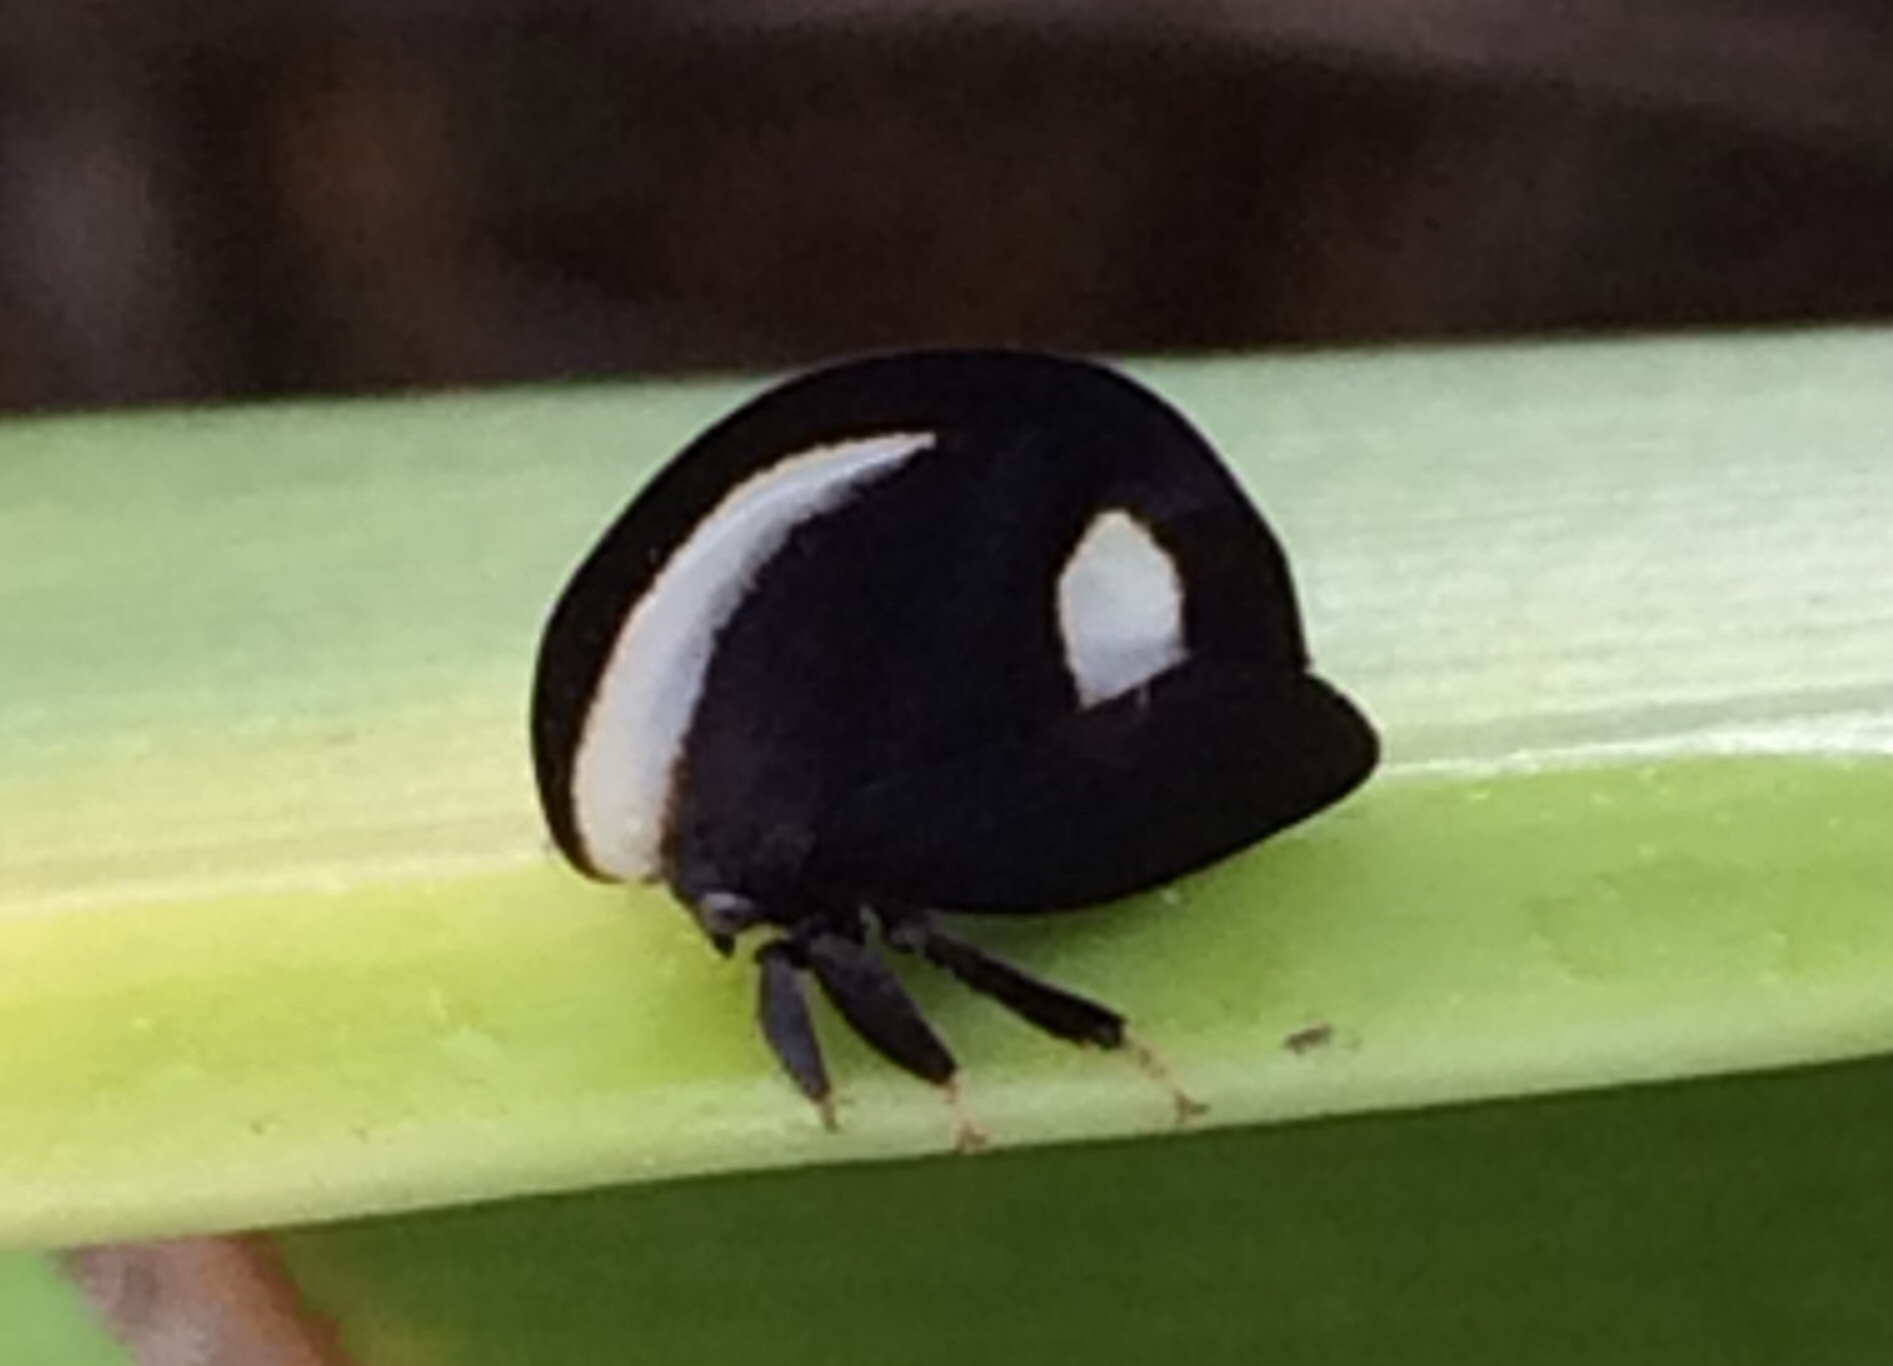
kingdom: Animalia
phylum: Arthropoda
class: Insecta
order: Hemiptera
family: Membracidae
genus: Membracis
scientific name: Membracis
